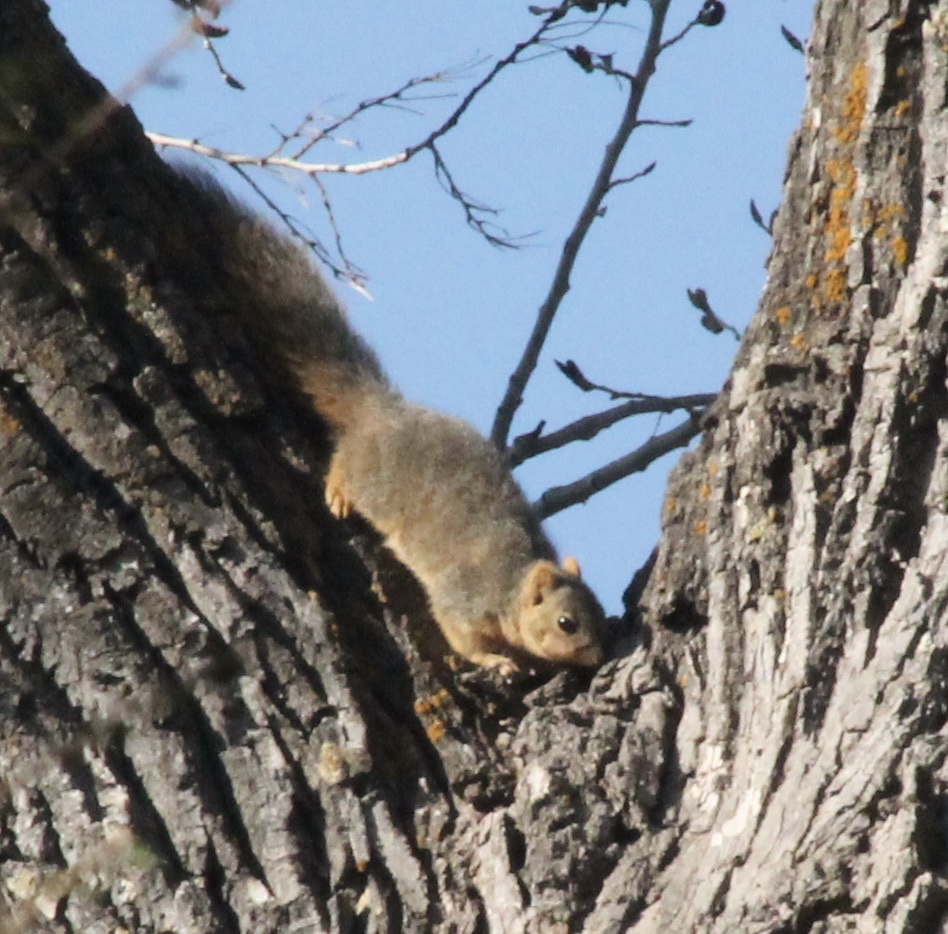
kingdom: Animalia
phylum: Chordata
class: Mammalia
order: Rodentia
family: Sciuridae
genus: Sciurus
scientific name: Sciurus niger
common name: Fox squirrel
